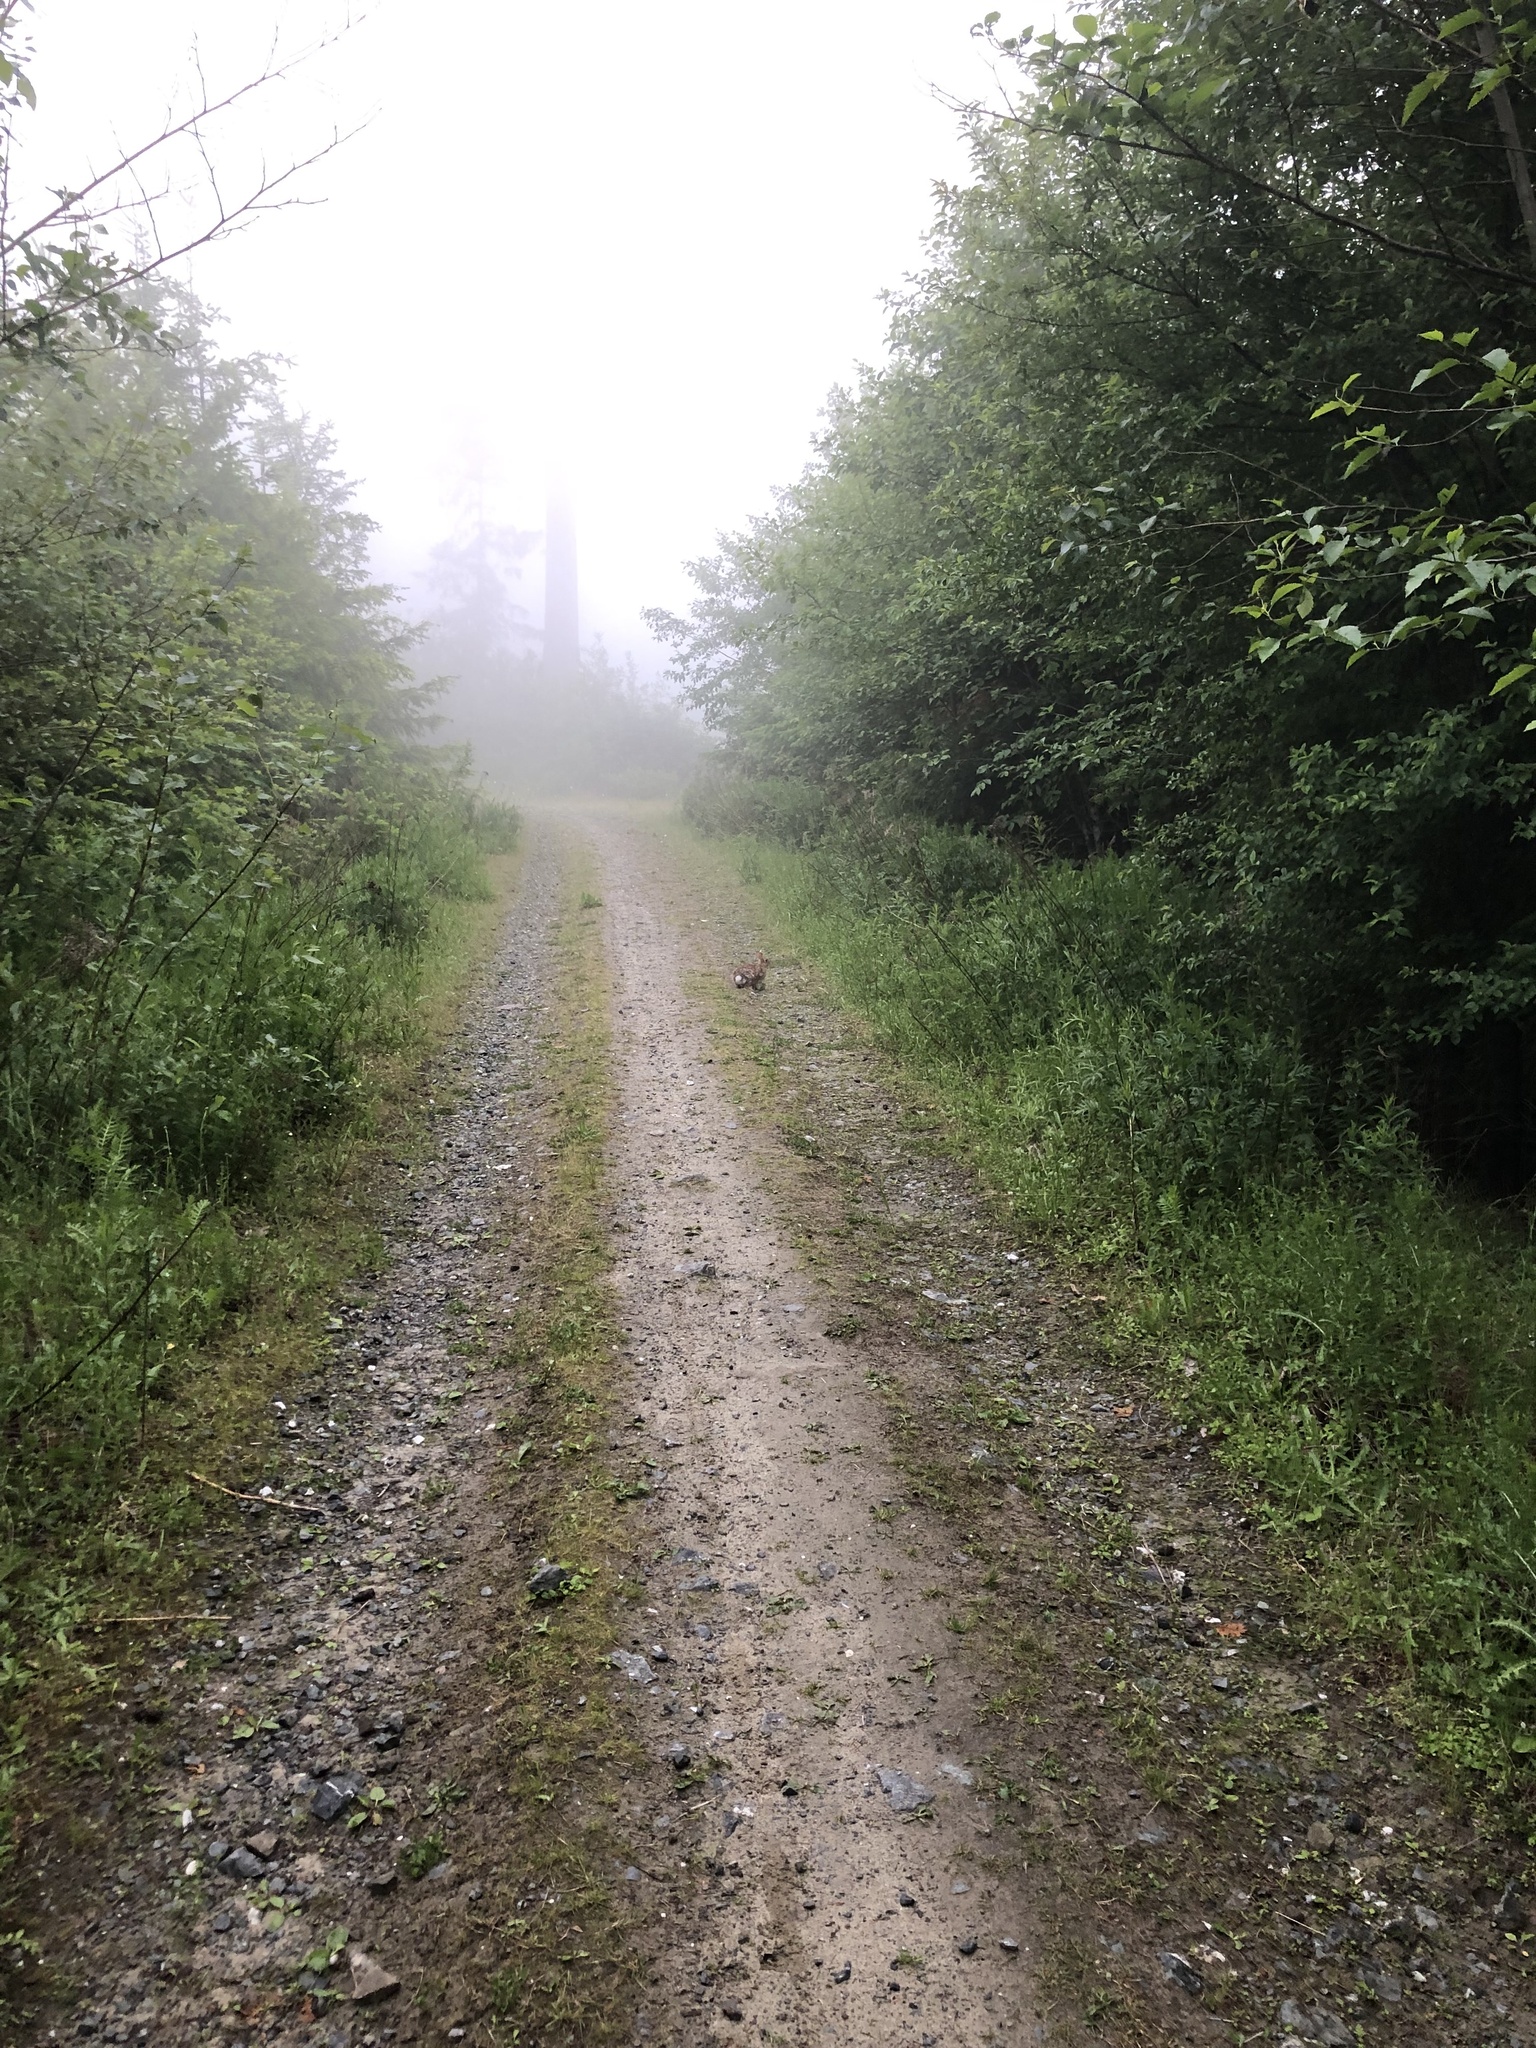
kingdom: Animalia
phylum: Chordata
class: Mammalia
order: Lagomorpha
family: Leporidae
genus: Sylvilagus
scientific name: Sylvilagus floridanus
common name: Eastern cottontail
